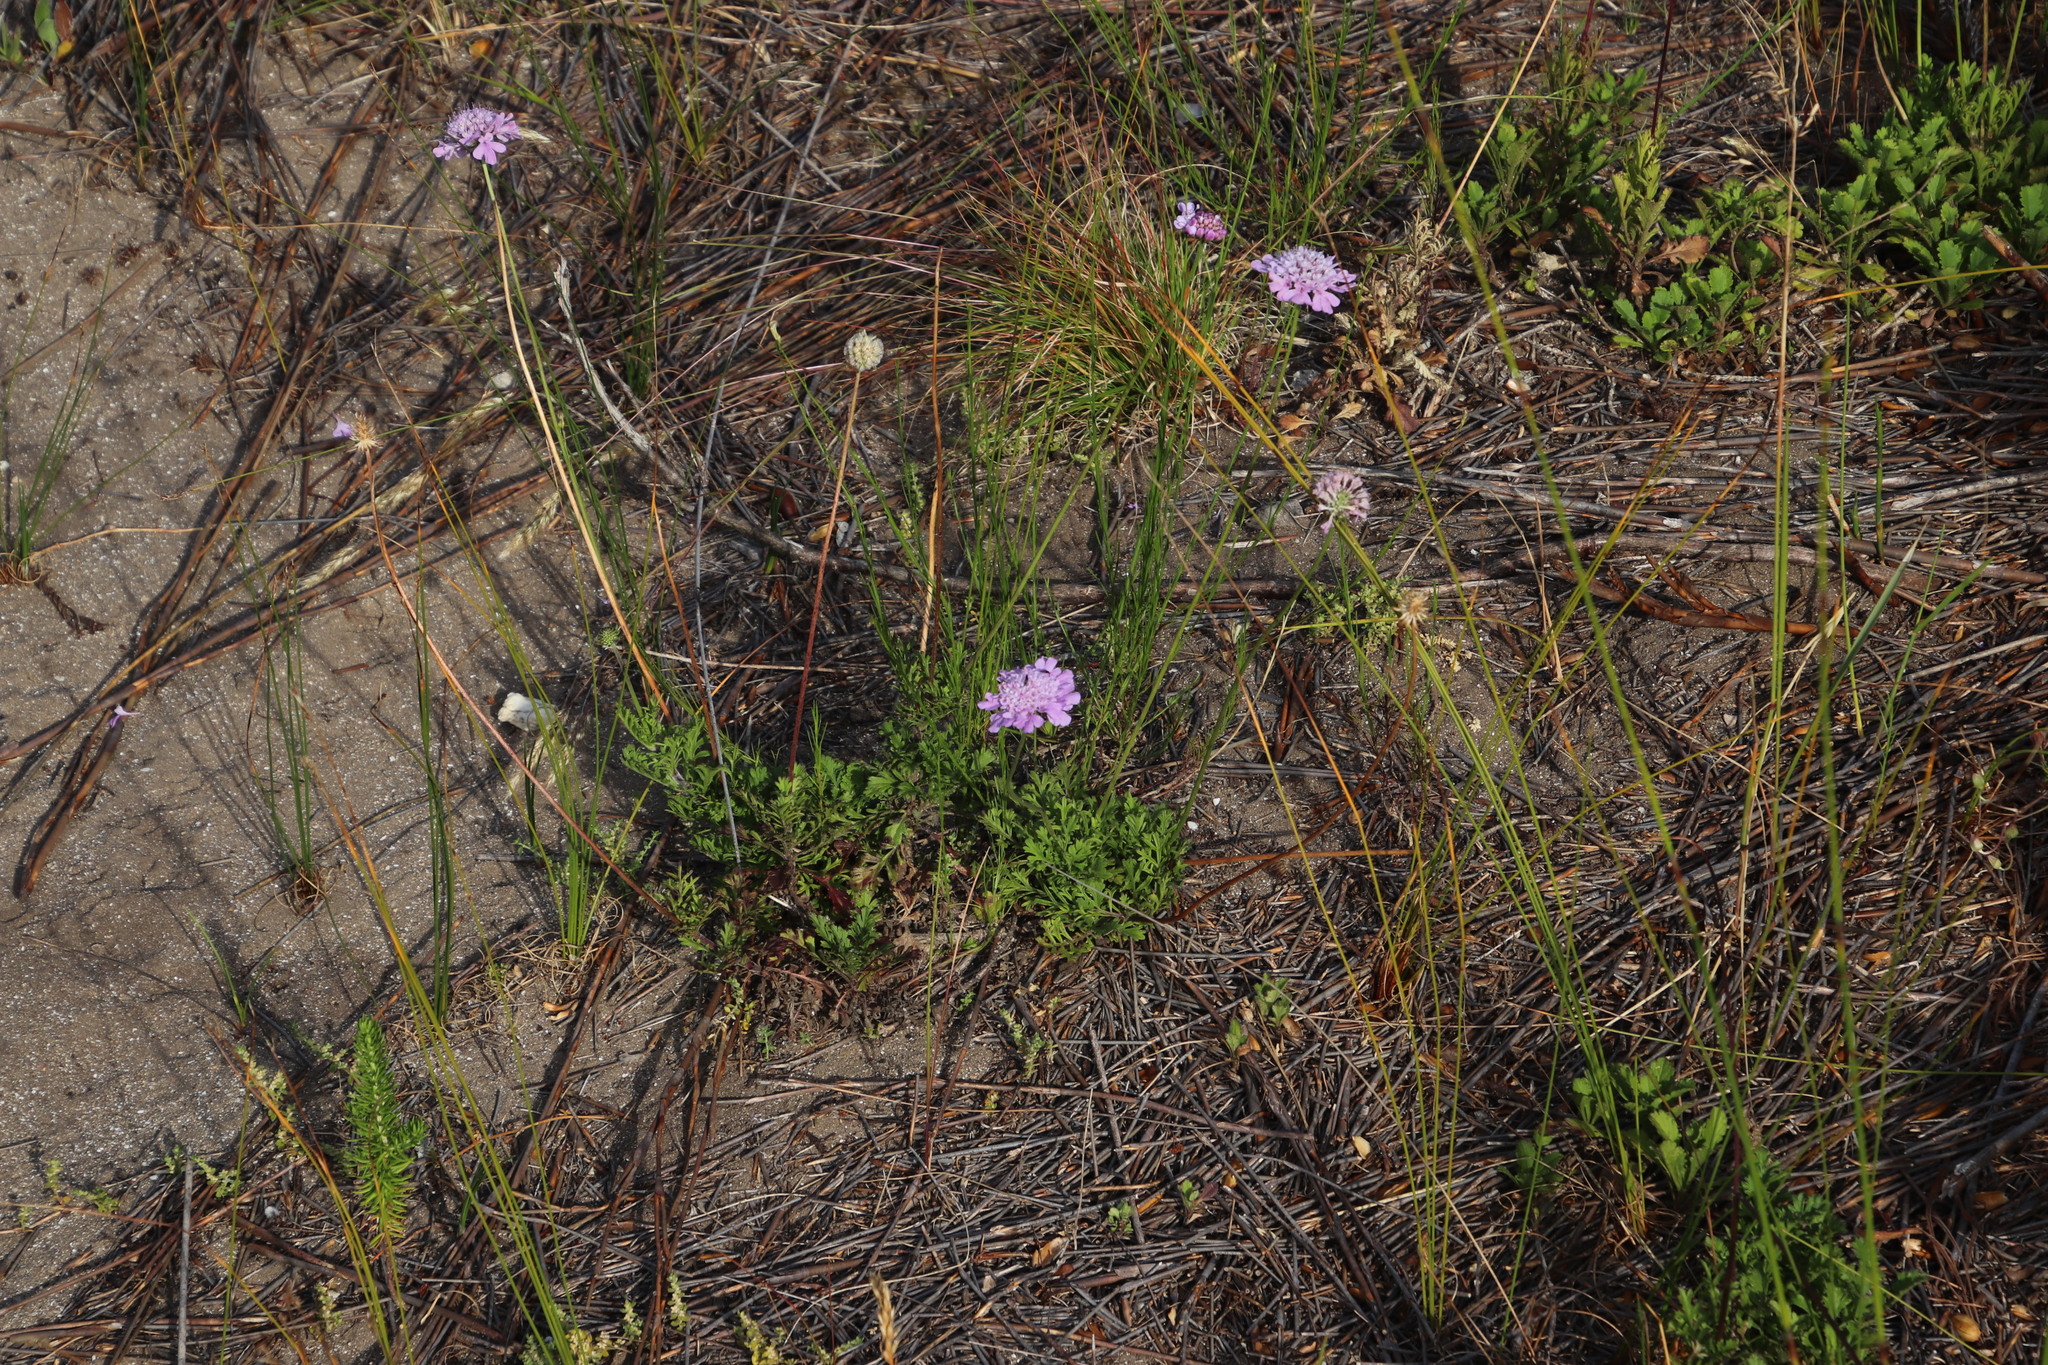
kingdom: Plantae
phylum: Tracheophyta
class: Magnoliopsida
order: Dipsacales
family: Caprifoliaceae
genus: Scabiosa
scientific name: Scabiosa incisa
